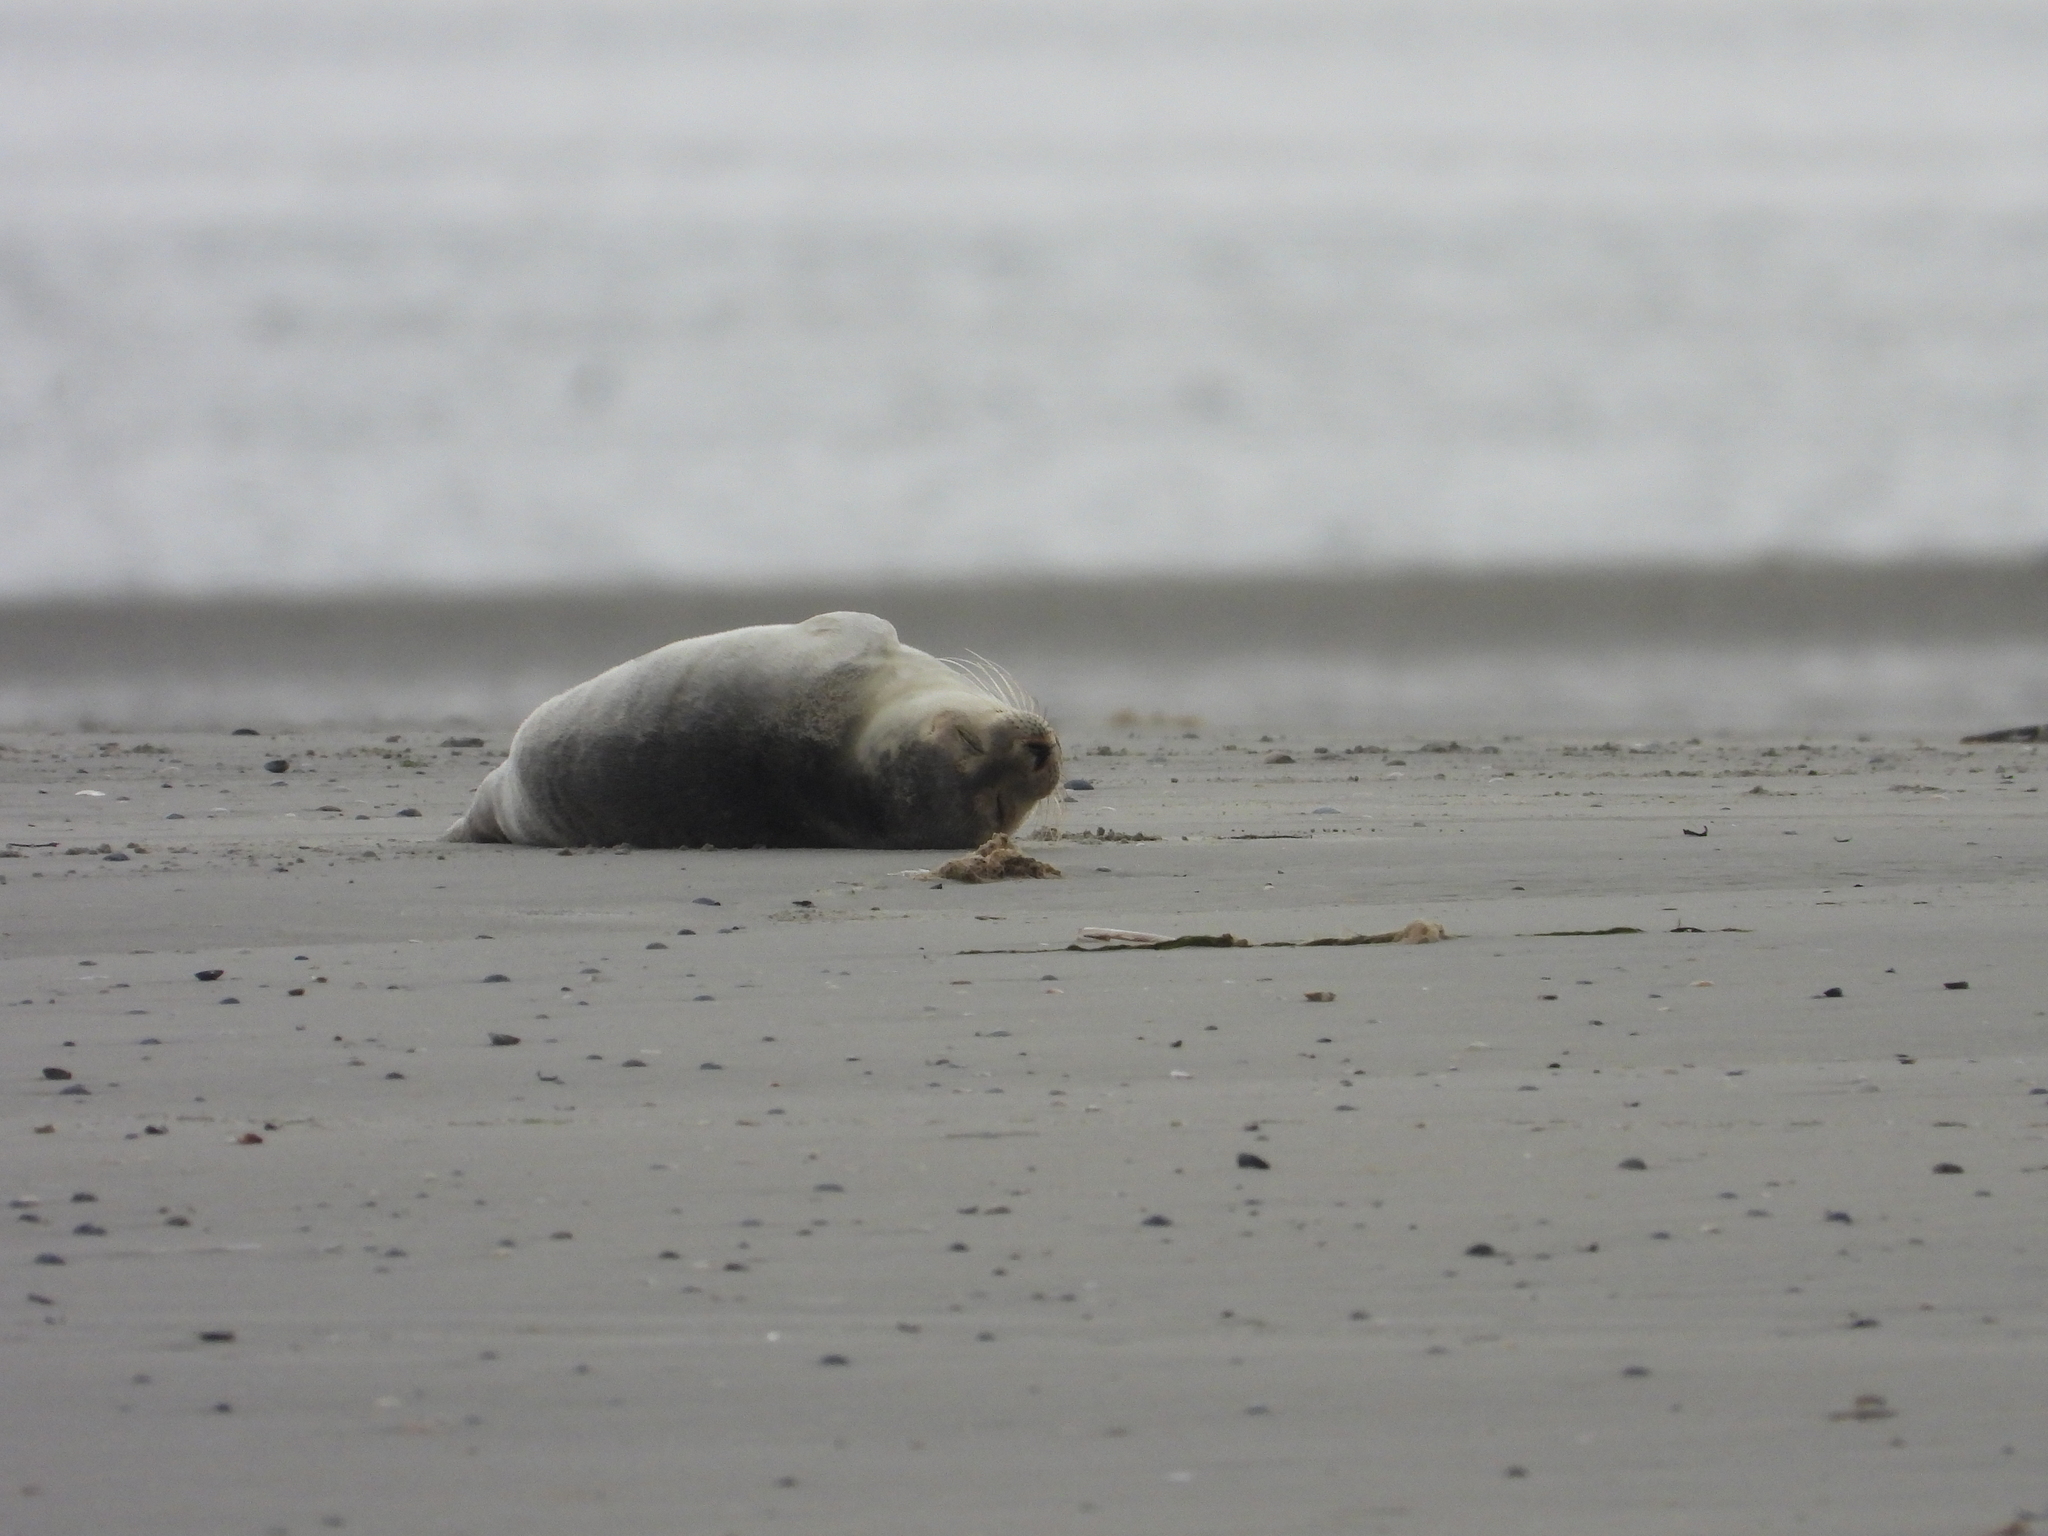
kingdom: Animalia
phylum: Chordata
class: Mammalia
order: Carnivora
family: Phocidae
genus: Phoca
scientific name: Phoca vitulina
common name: Harbor seal
